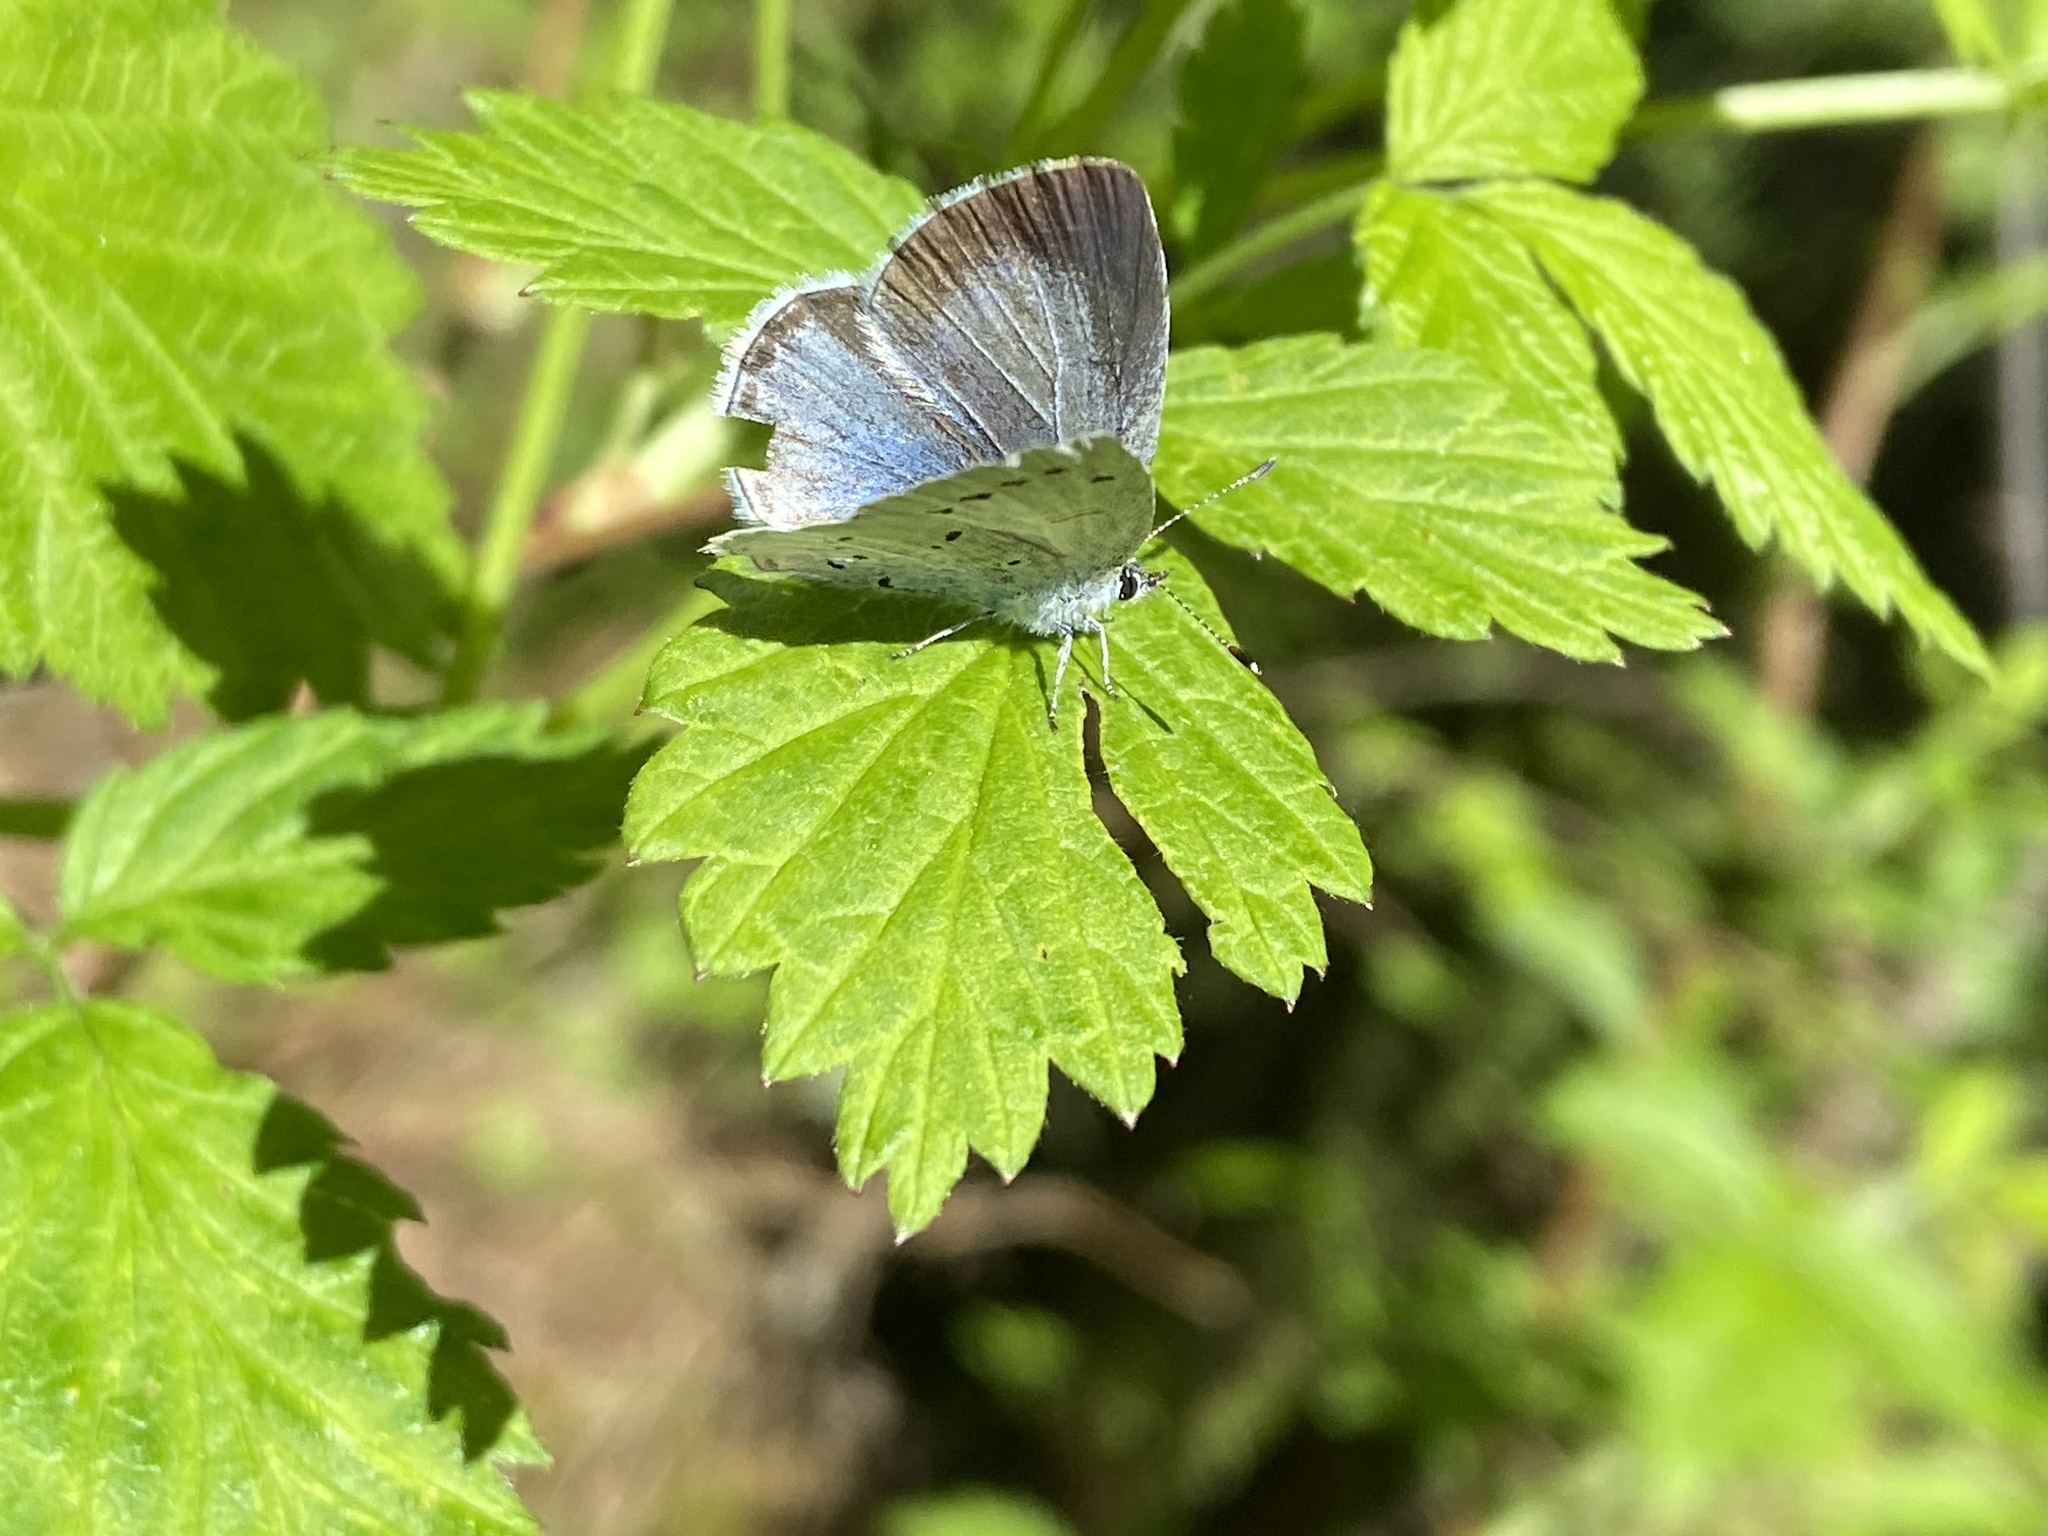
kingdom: Animalia
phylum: Arthropoda
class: Insecta
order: Lepidoptera
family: Lycaenidae
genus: Celastrina
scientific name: Celastrina argiolus
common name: Holly blue
